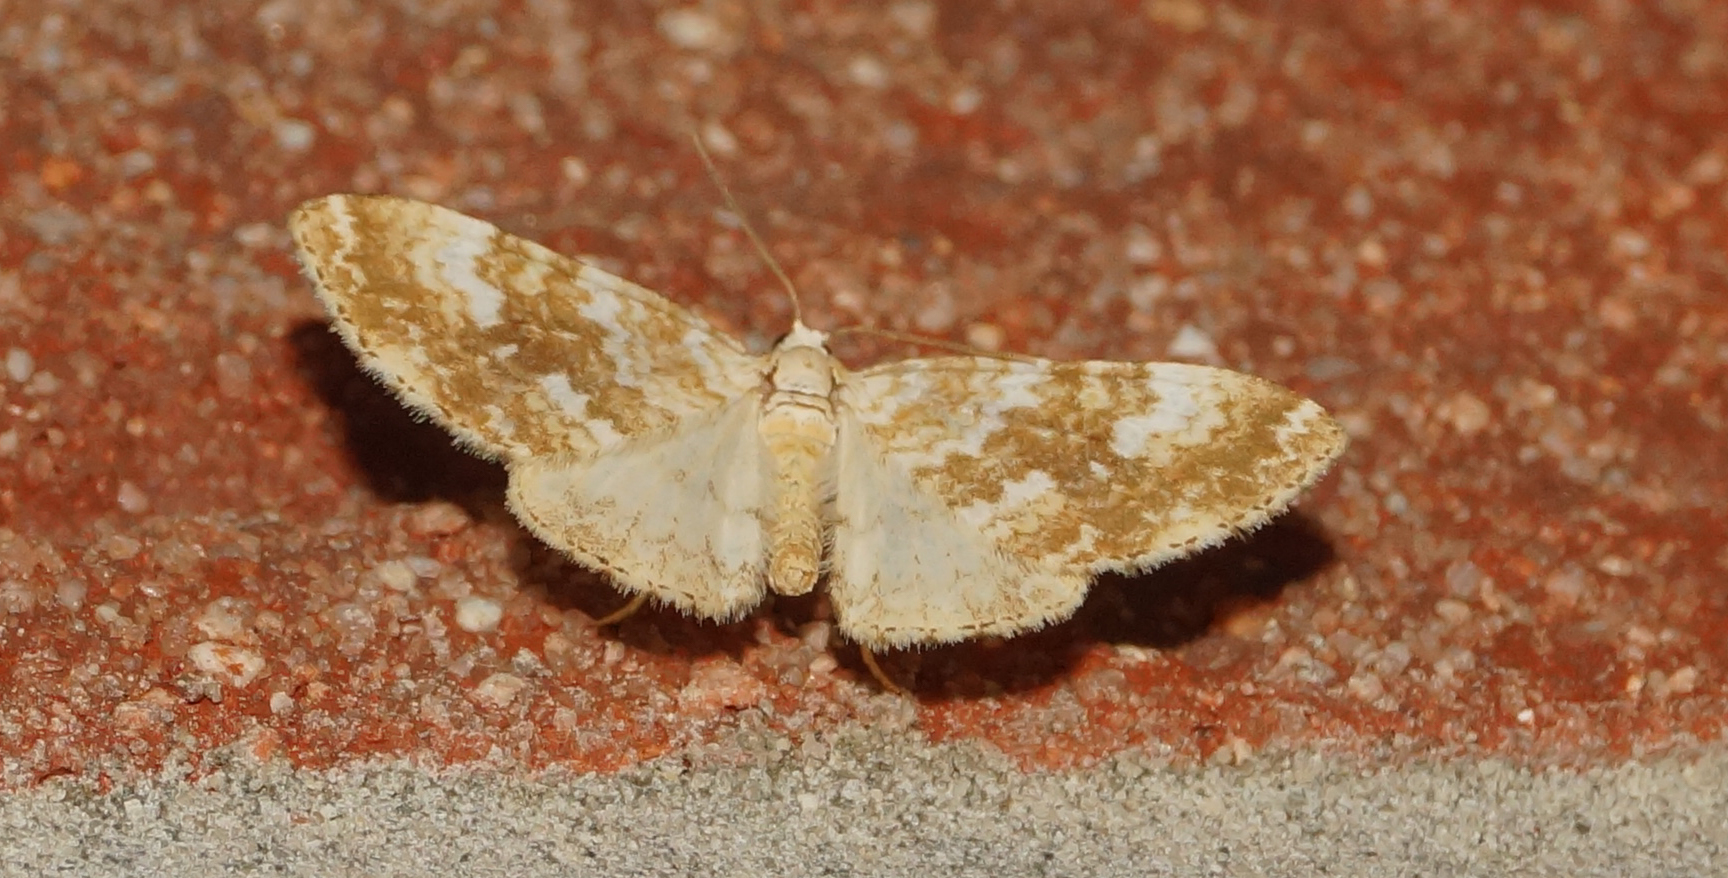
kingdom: Animalia
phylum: Arthropoda
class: Insecta
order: Lepidoptera
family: Geometridae
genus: Perizoma
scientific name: Perizoma flavofasciata
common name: Sandy carpet
